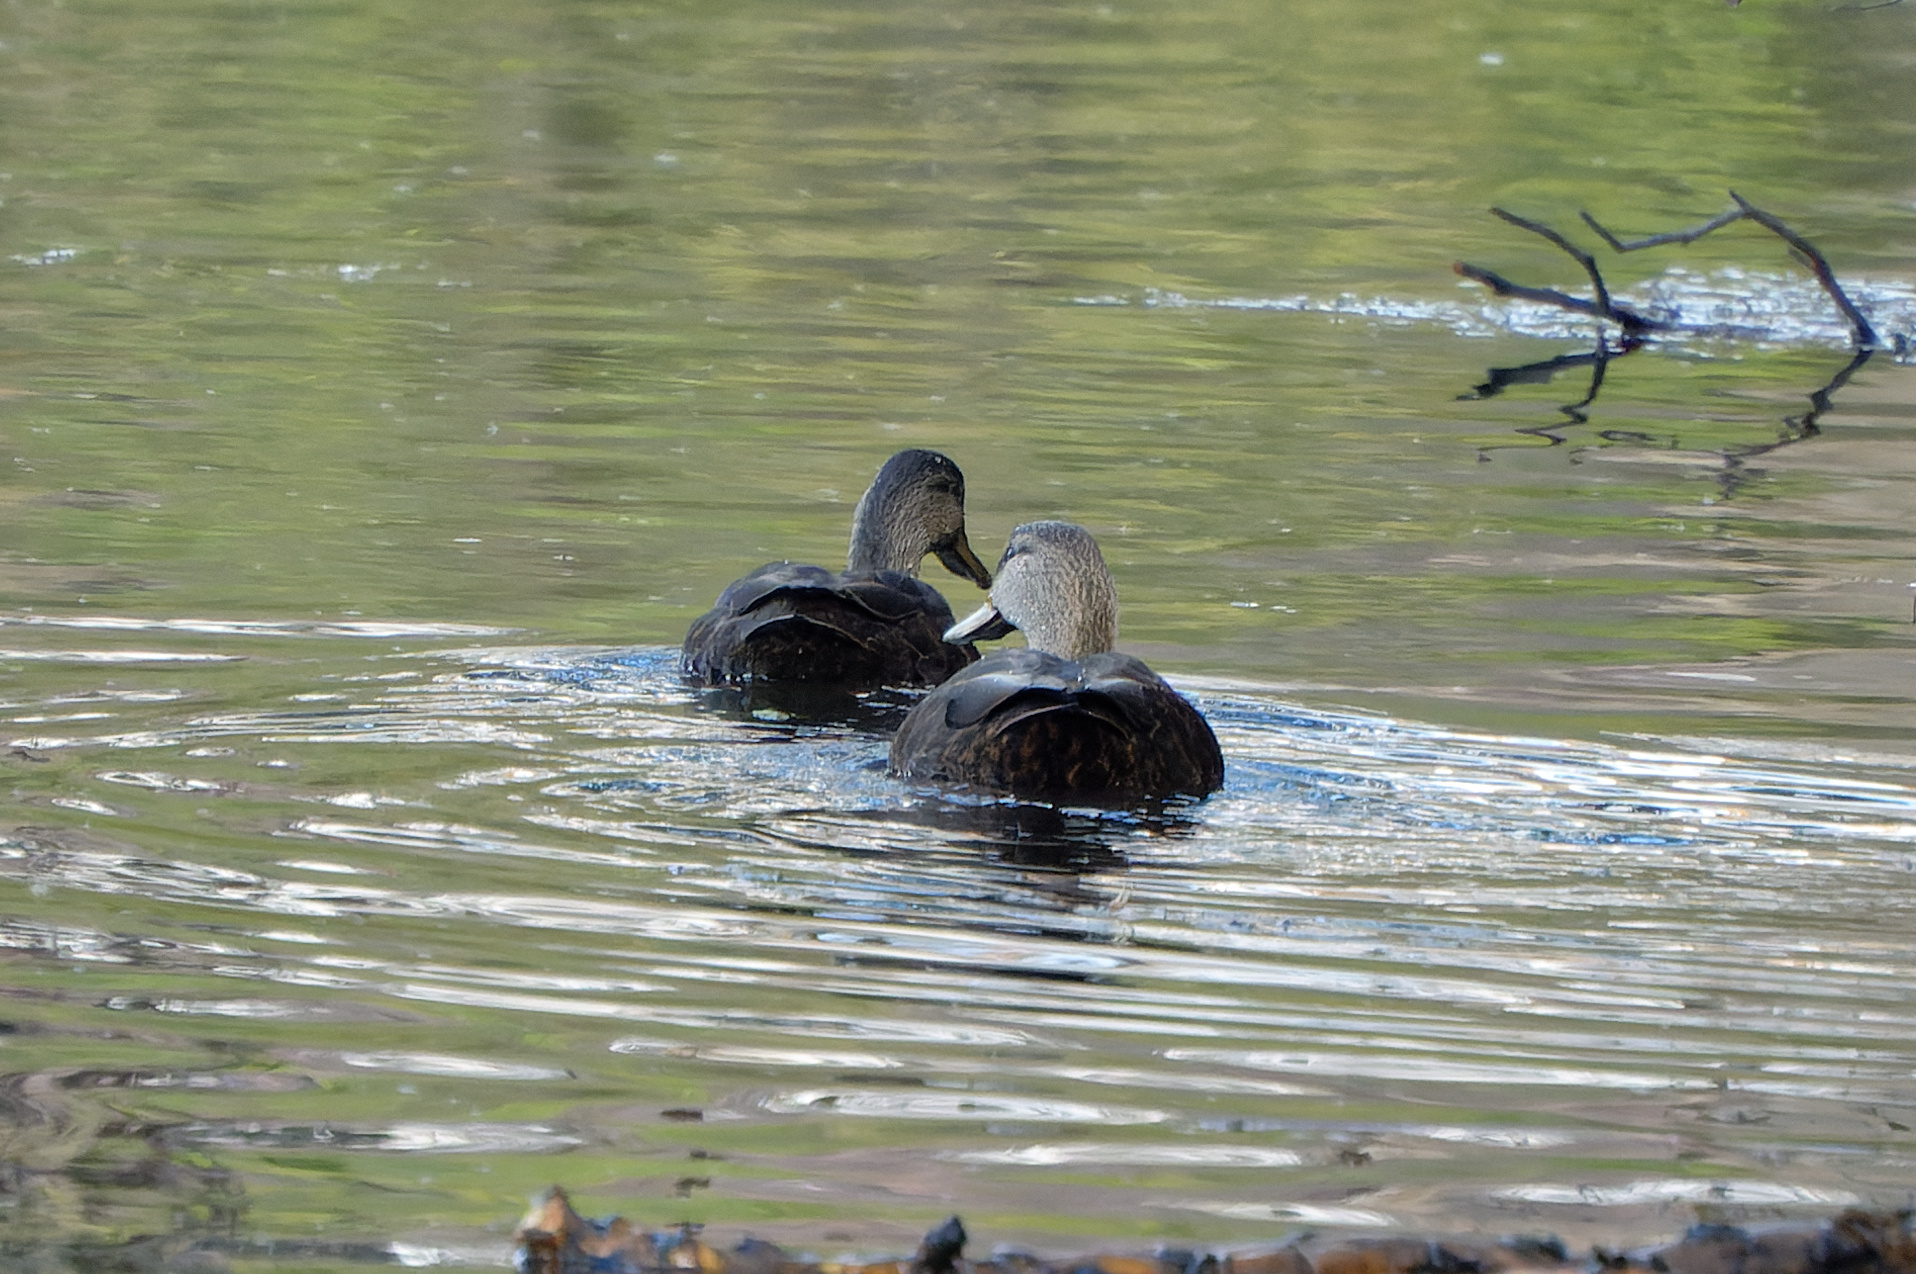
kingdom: Animalia
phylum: Chordata
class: Aves
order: Anseriformes
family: Anatidae
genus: Anas
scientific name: Anas rubripes
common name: American black duck
